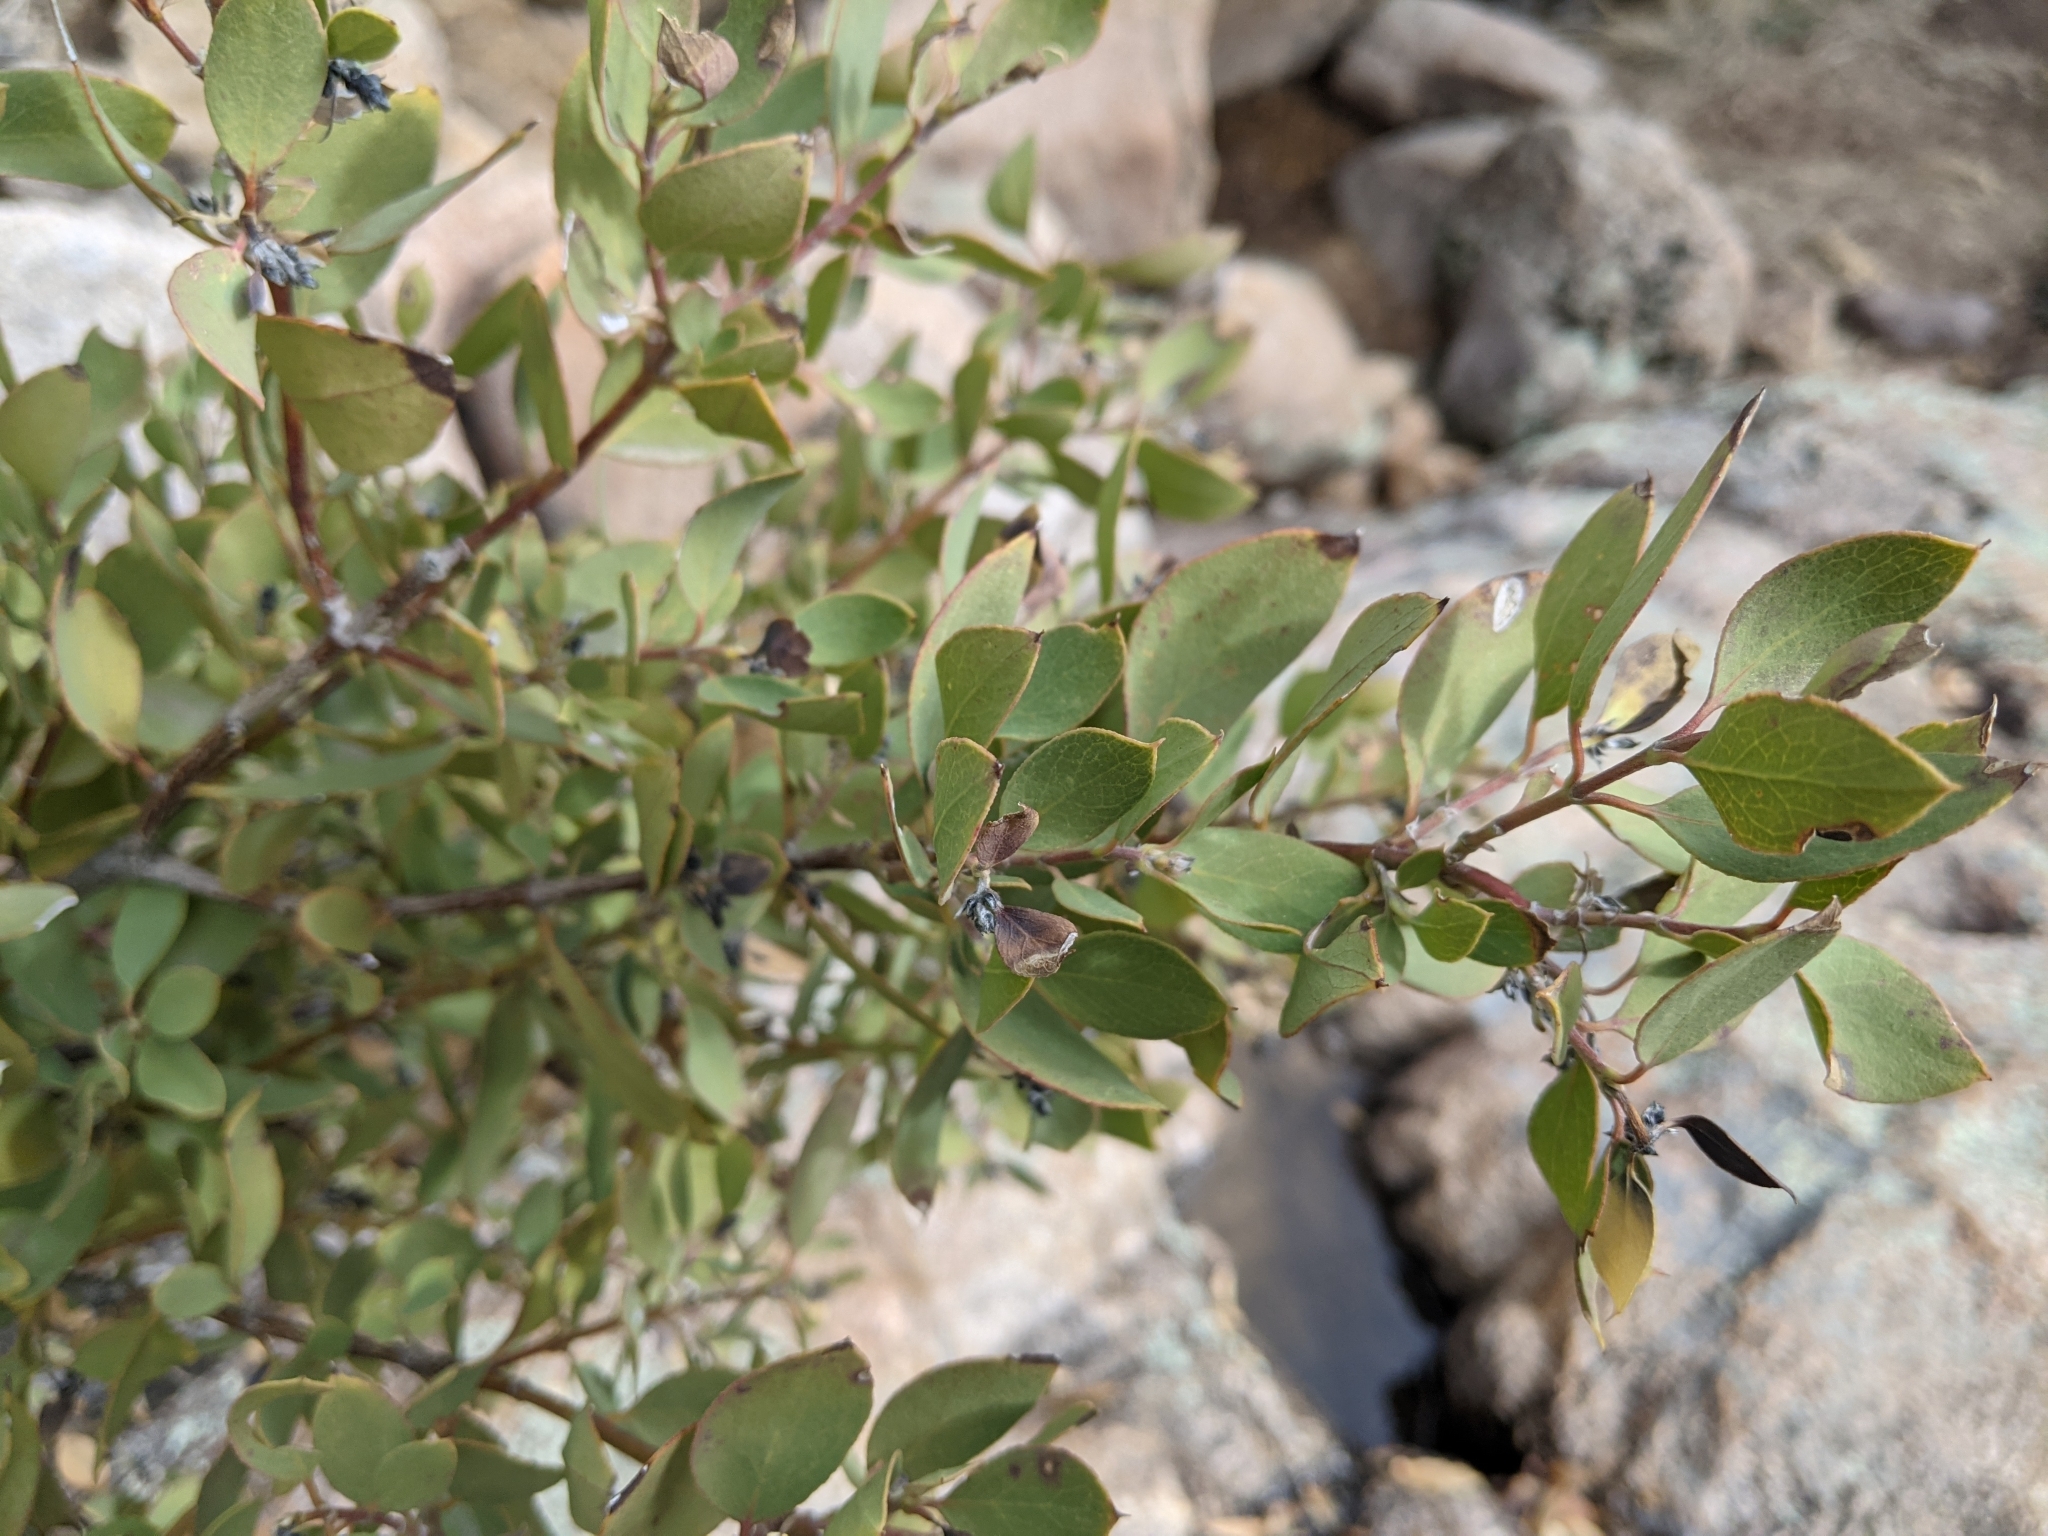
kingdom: Plantae
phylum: Tracheophyta
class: Magnoliopsida
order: Garryales
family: Garryaceae
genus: Garrya
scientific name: Garrya wrightii
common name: Wright's silktassel
